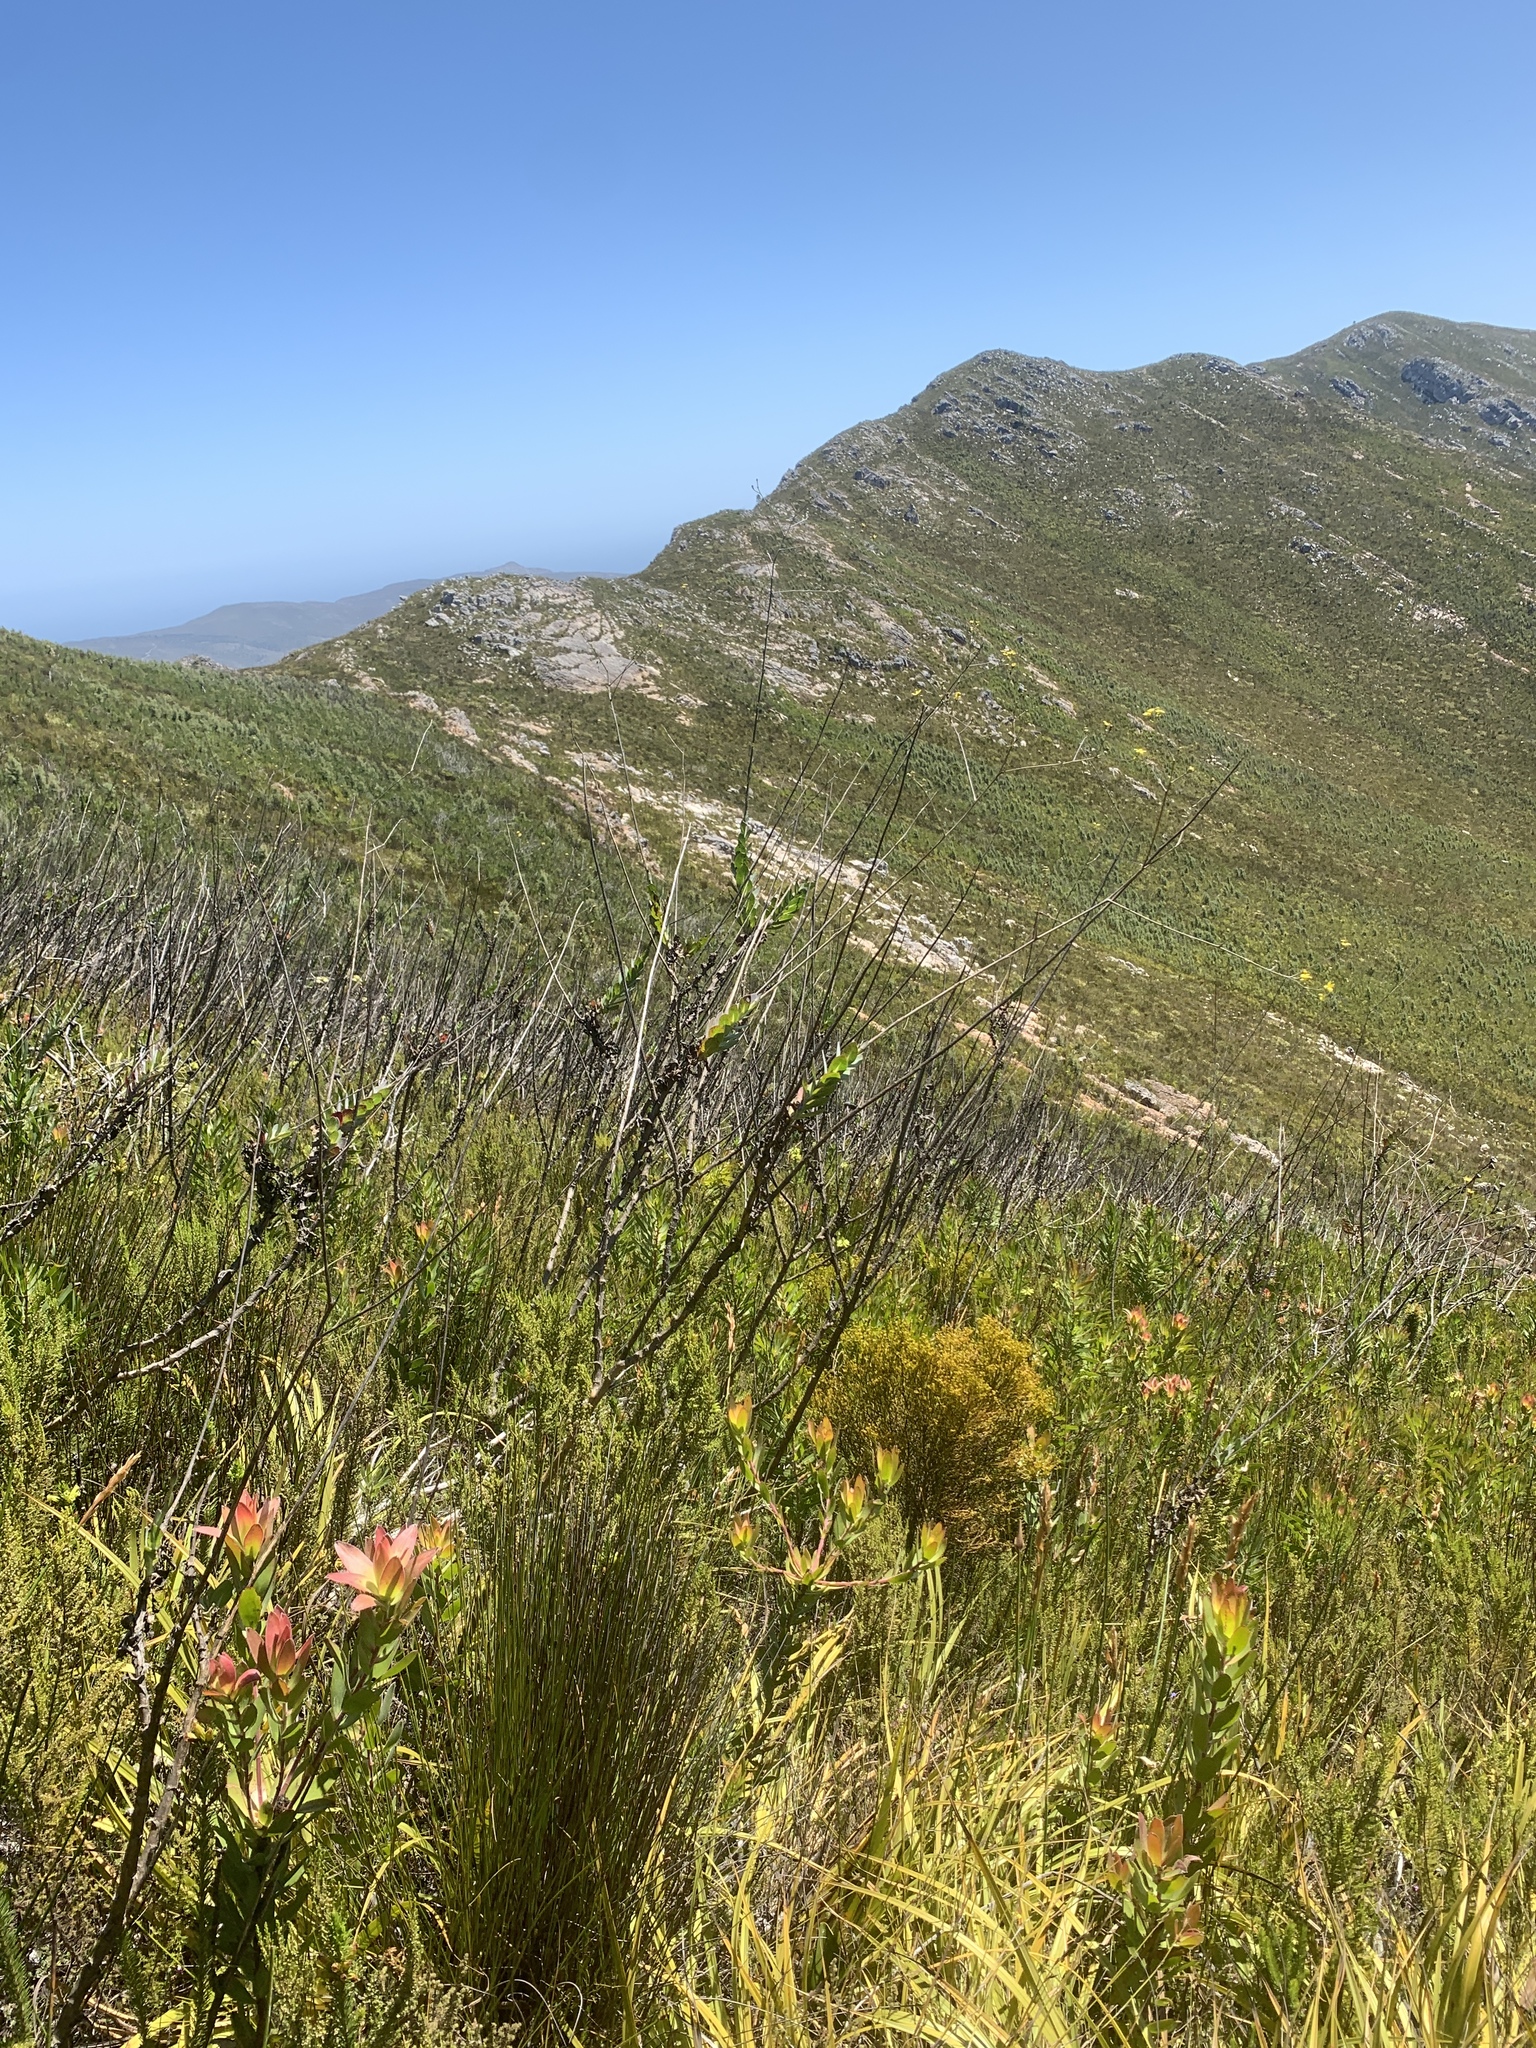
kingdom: Plantae
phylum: Tracheophyta
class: Magnoliopsida
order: Asterales
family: Asteraceae
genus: Othonna
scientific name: Othonna quinquedentata
